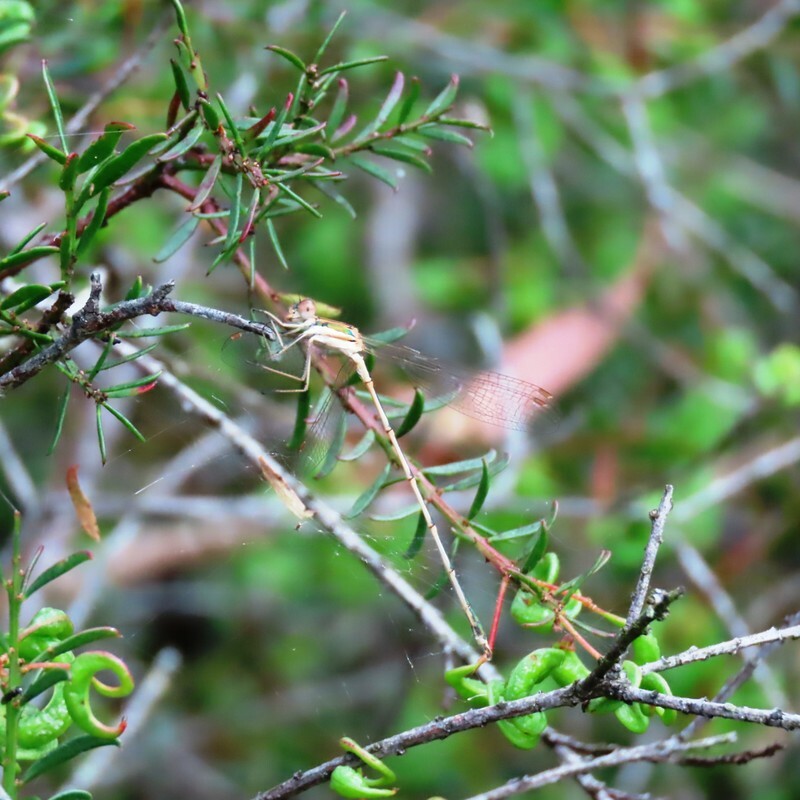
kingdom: Animalia
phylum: Arthropoda
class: Insecta
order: Odonata
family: Lestidae
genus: Austrolestes
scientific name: Austrolestes analis
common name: Slender ringtail
